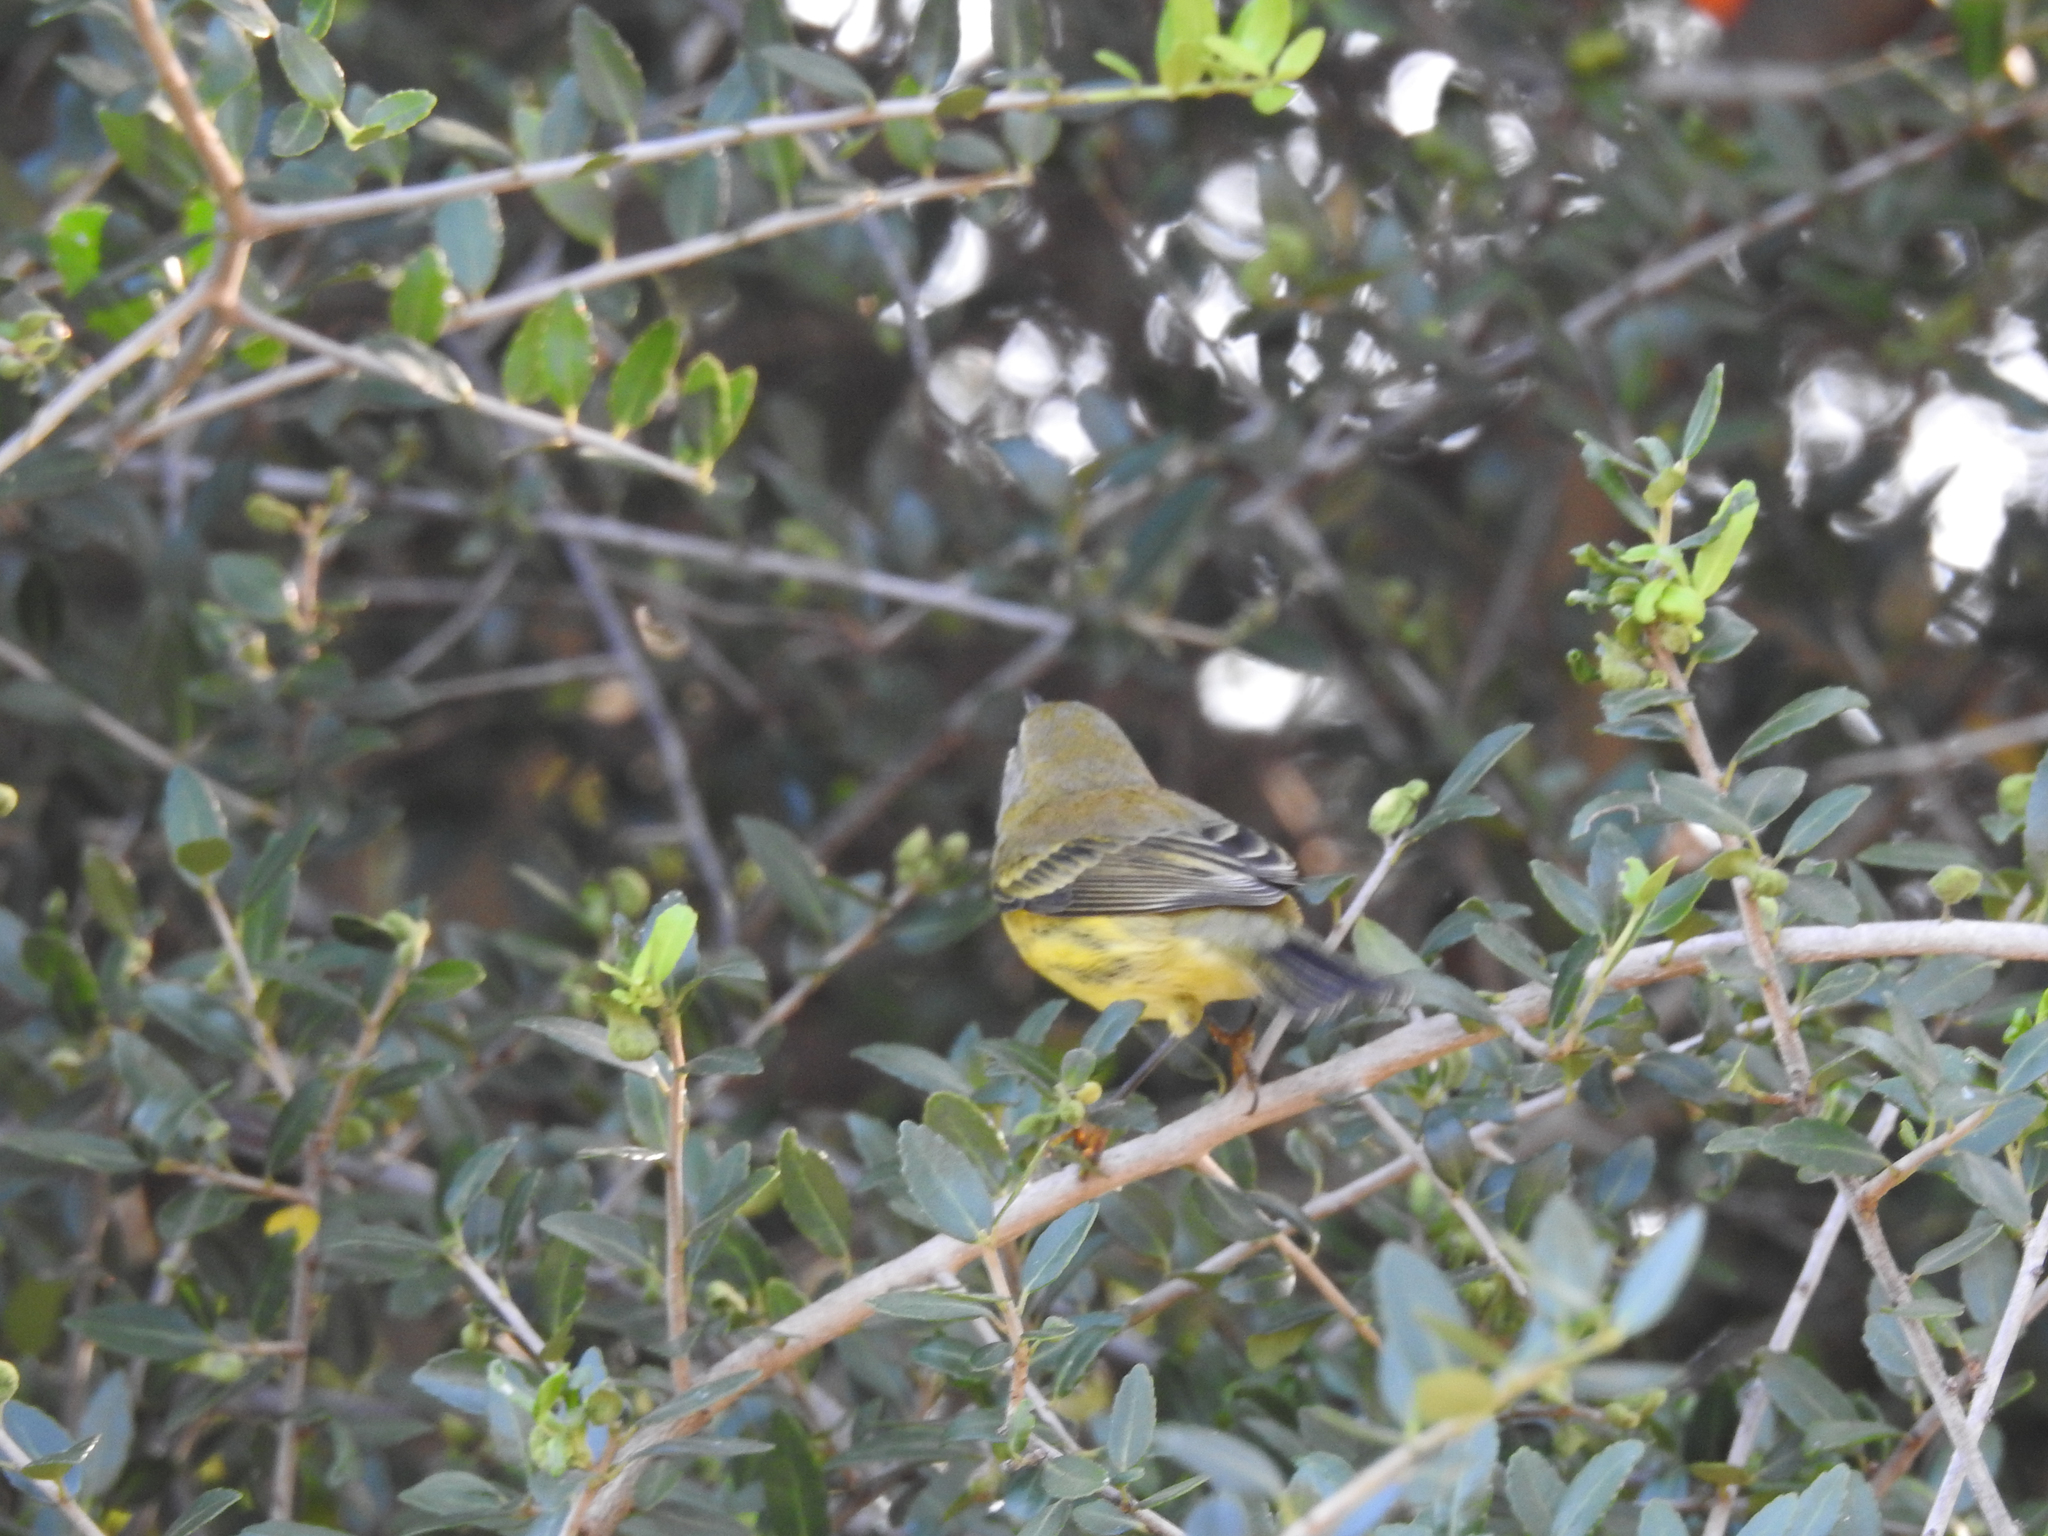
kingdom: Animalia
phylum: Chordata
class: Aves
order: Passeriformes
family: Parulidae
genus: Setophaga
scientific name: Setophaga discolor
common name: Prairie warbler
